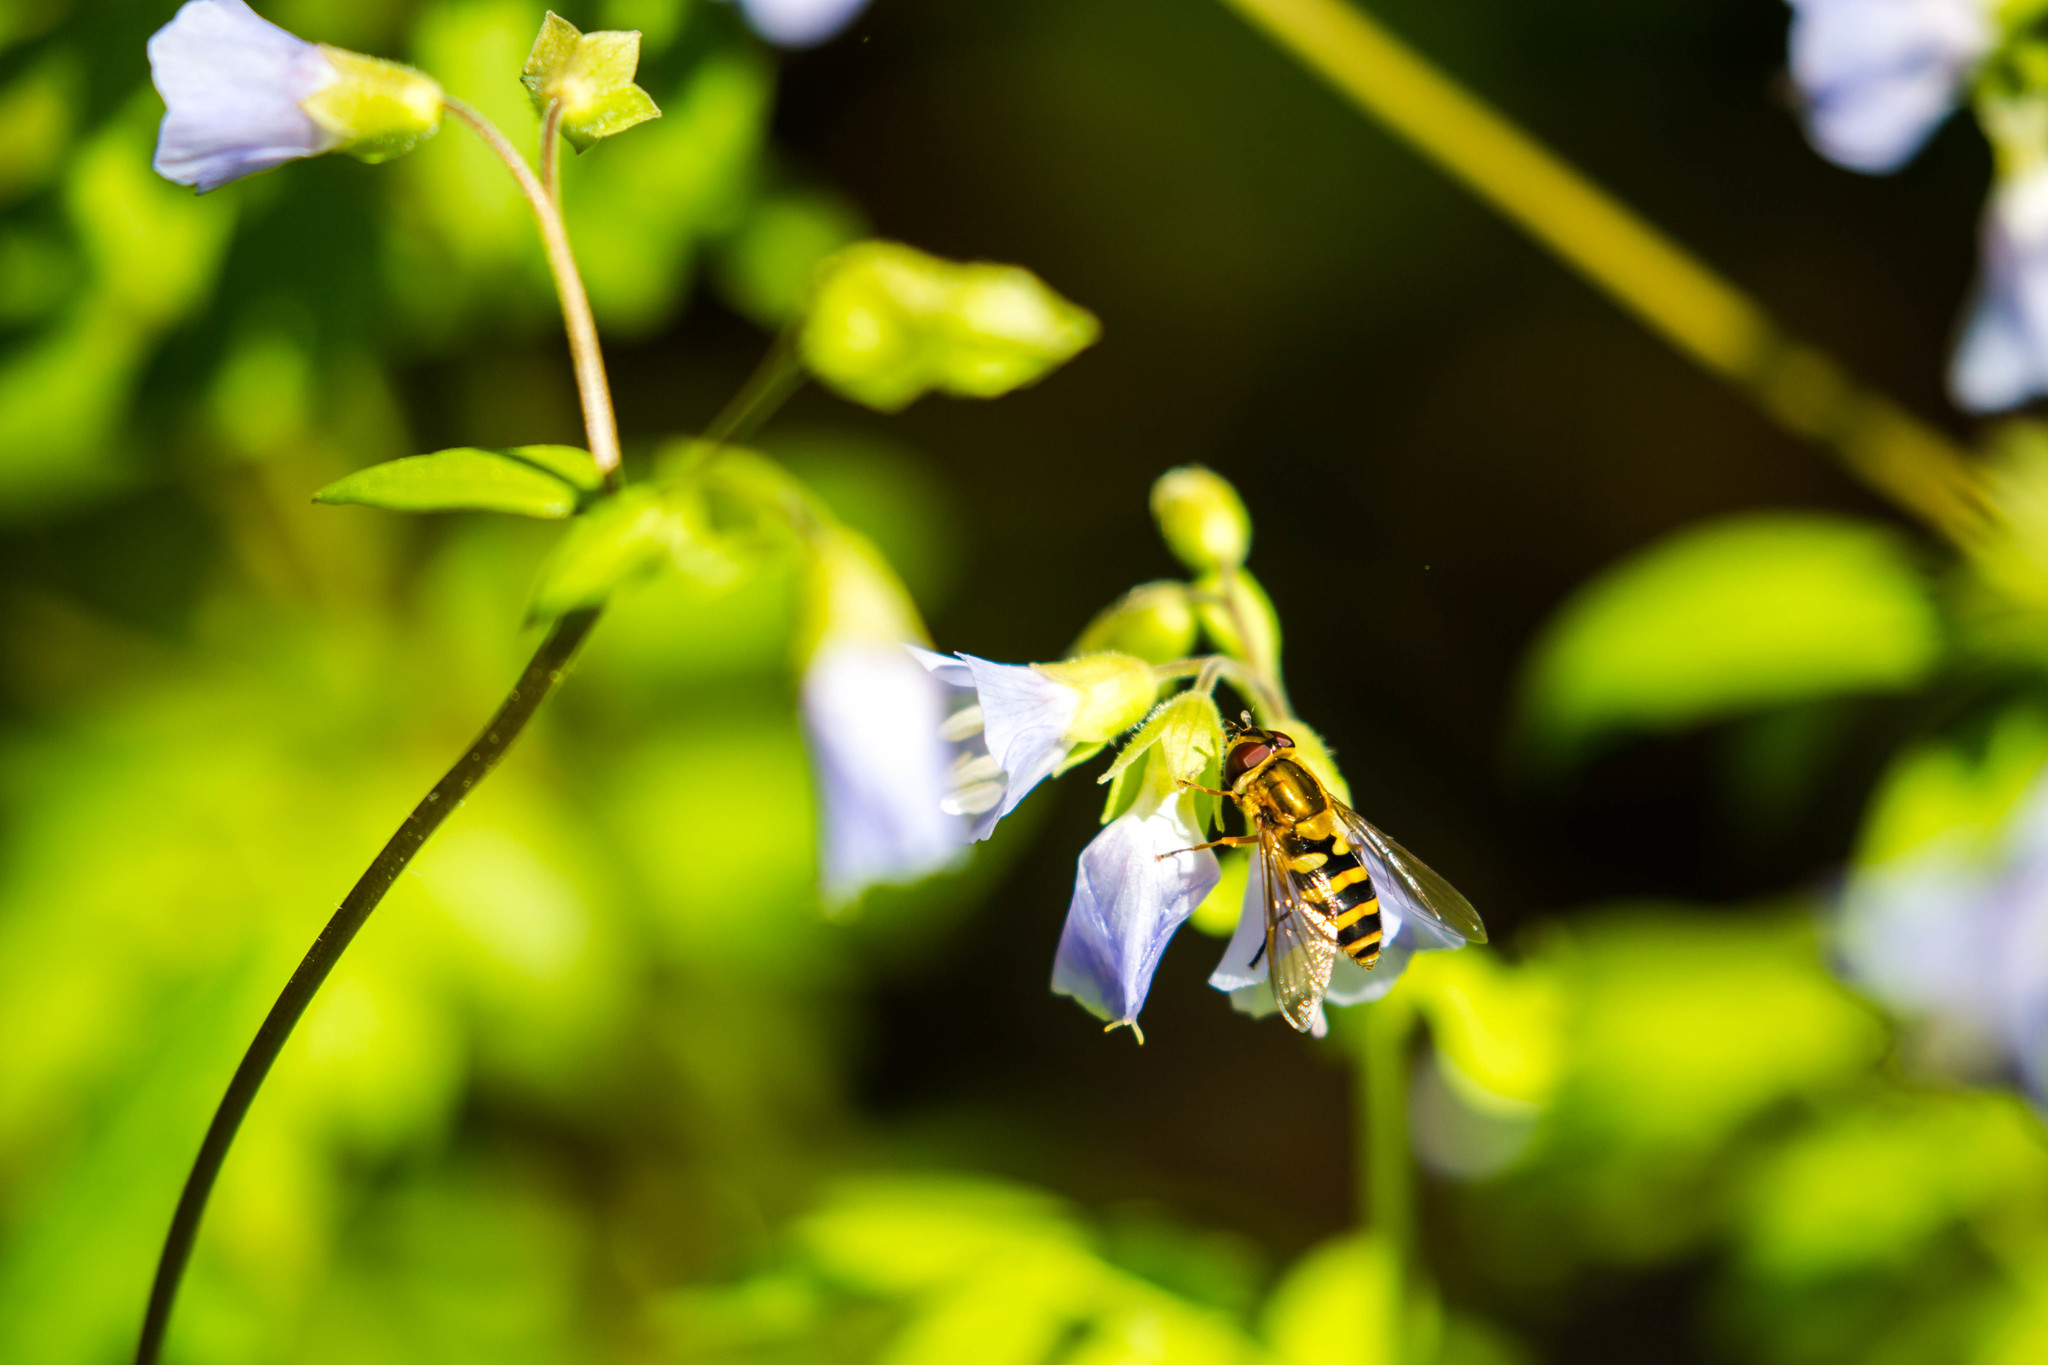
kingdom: Animalia
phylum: Arthropoda
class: Insecta
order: Diptera
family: Syrphidae
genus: Syrphus
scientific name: Syrphus
